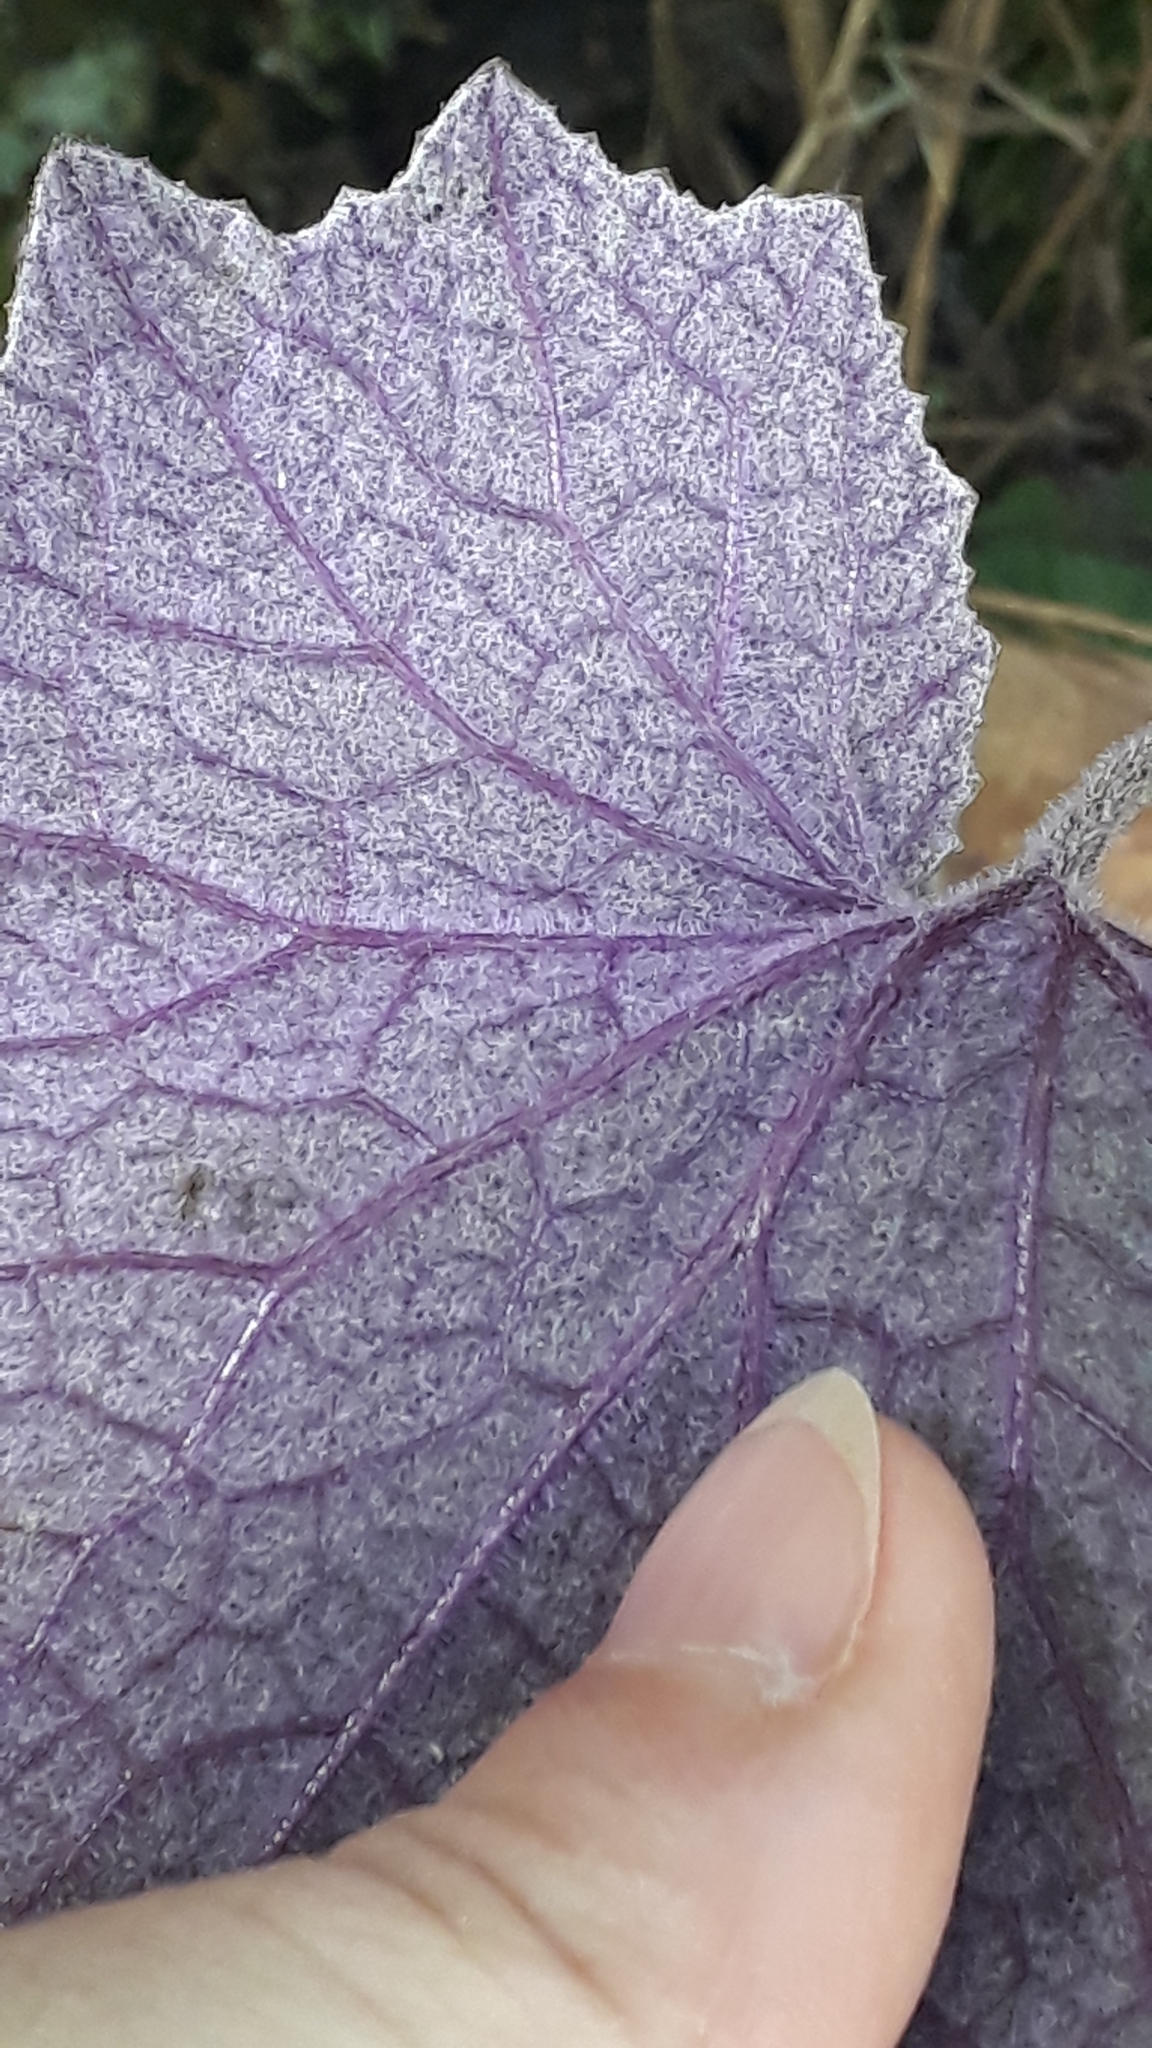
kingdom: Plantae
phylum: Tracheophyta
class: Magnoliopsida
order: Asterales
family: Asteraceae
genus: Pericallis
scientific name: Pericallis cruenta
